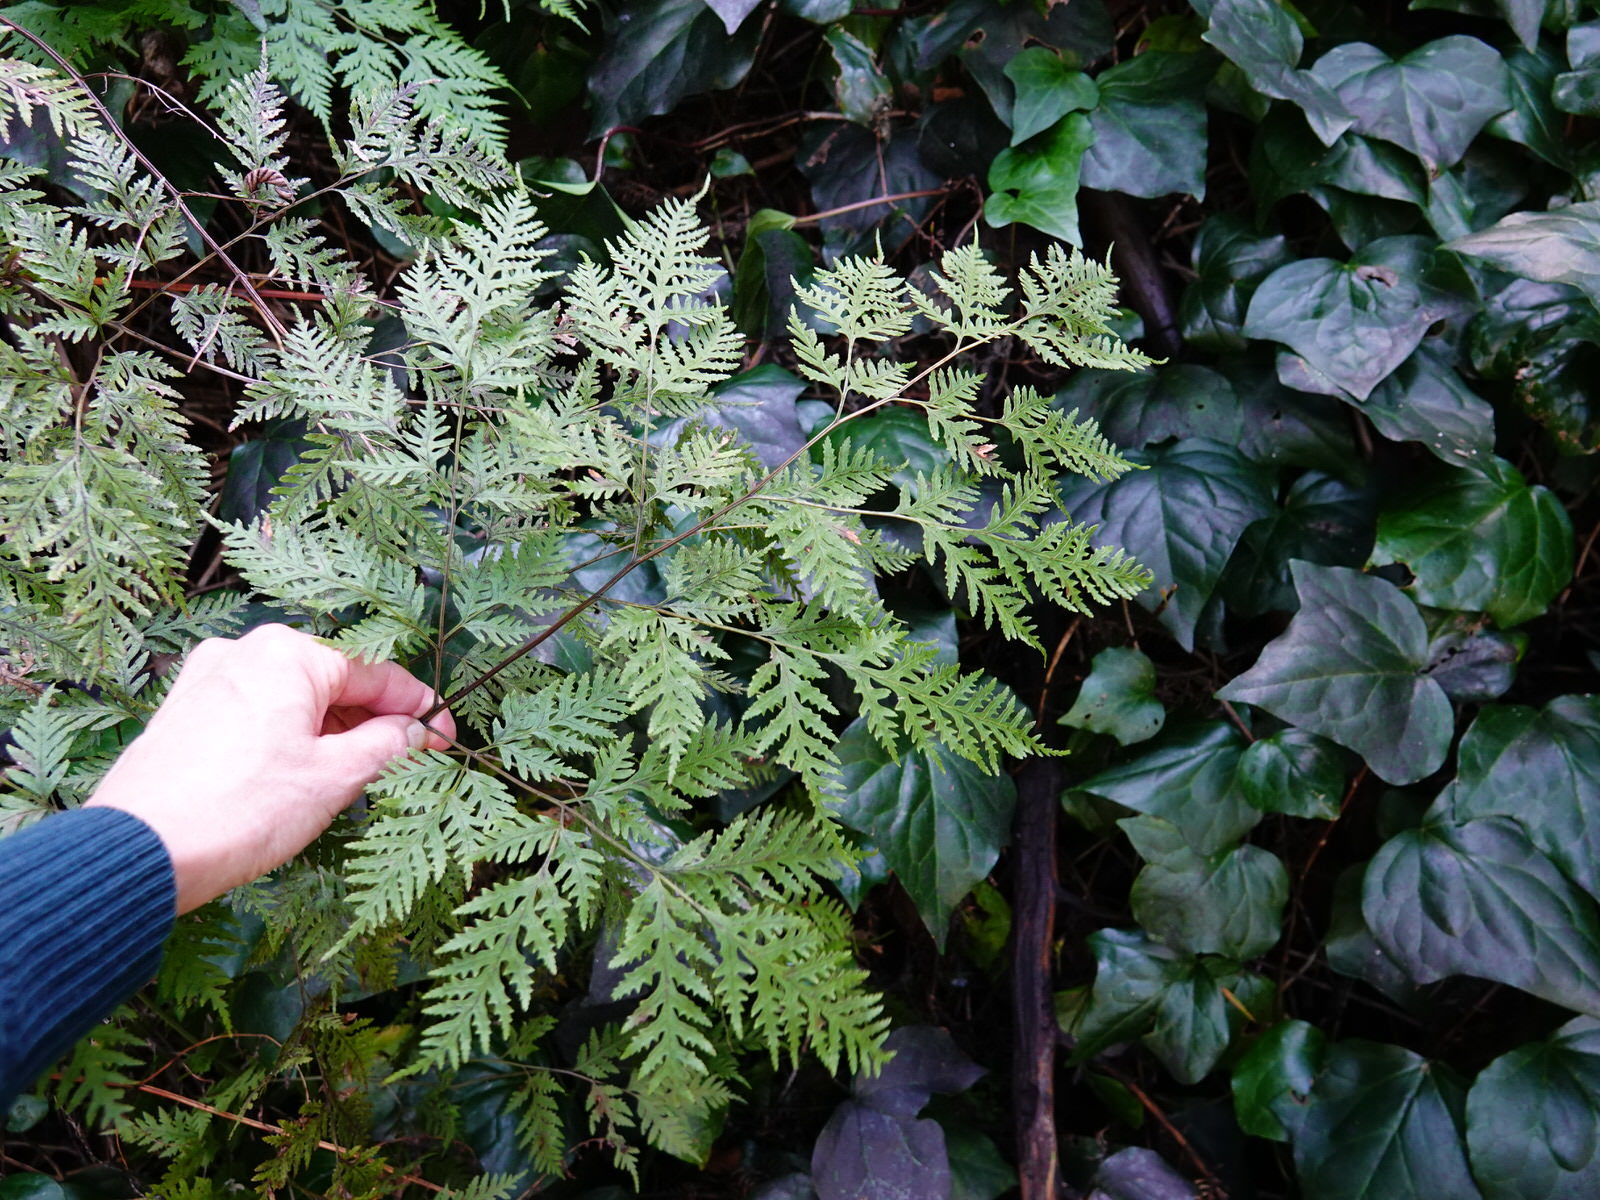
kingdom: Plantae
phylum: Tracheophyta
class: Polypodiopsida
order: Polypodiales
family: Pteridaceae
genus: Pteris
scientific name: Pteris macilenta
